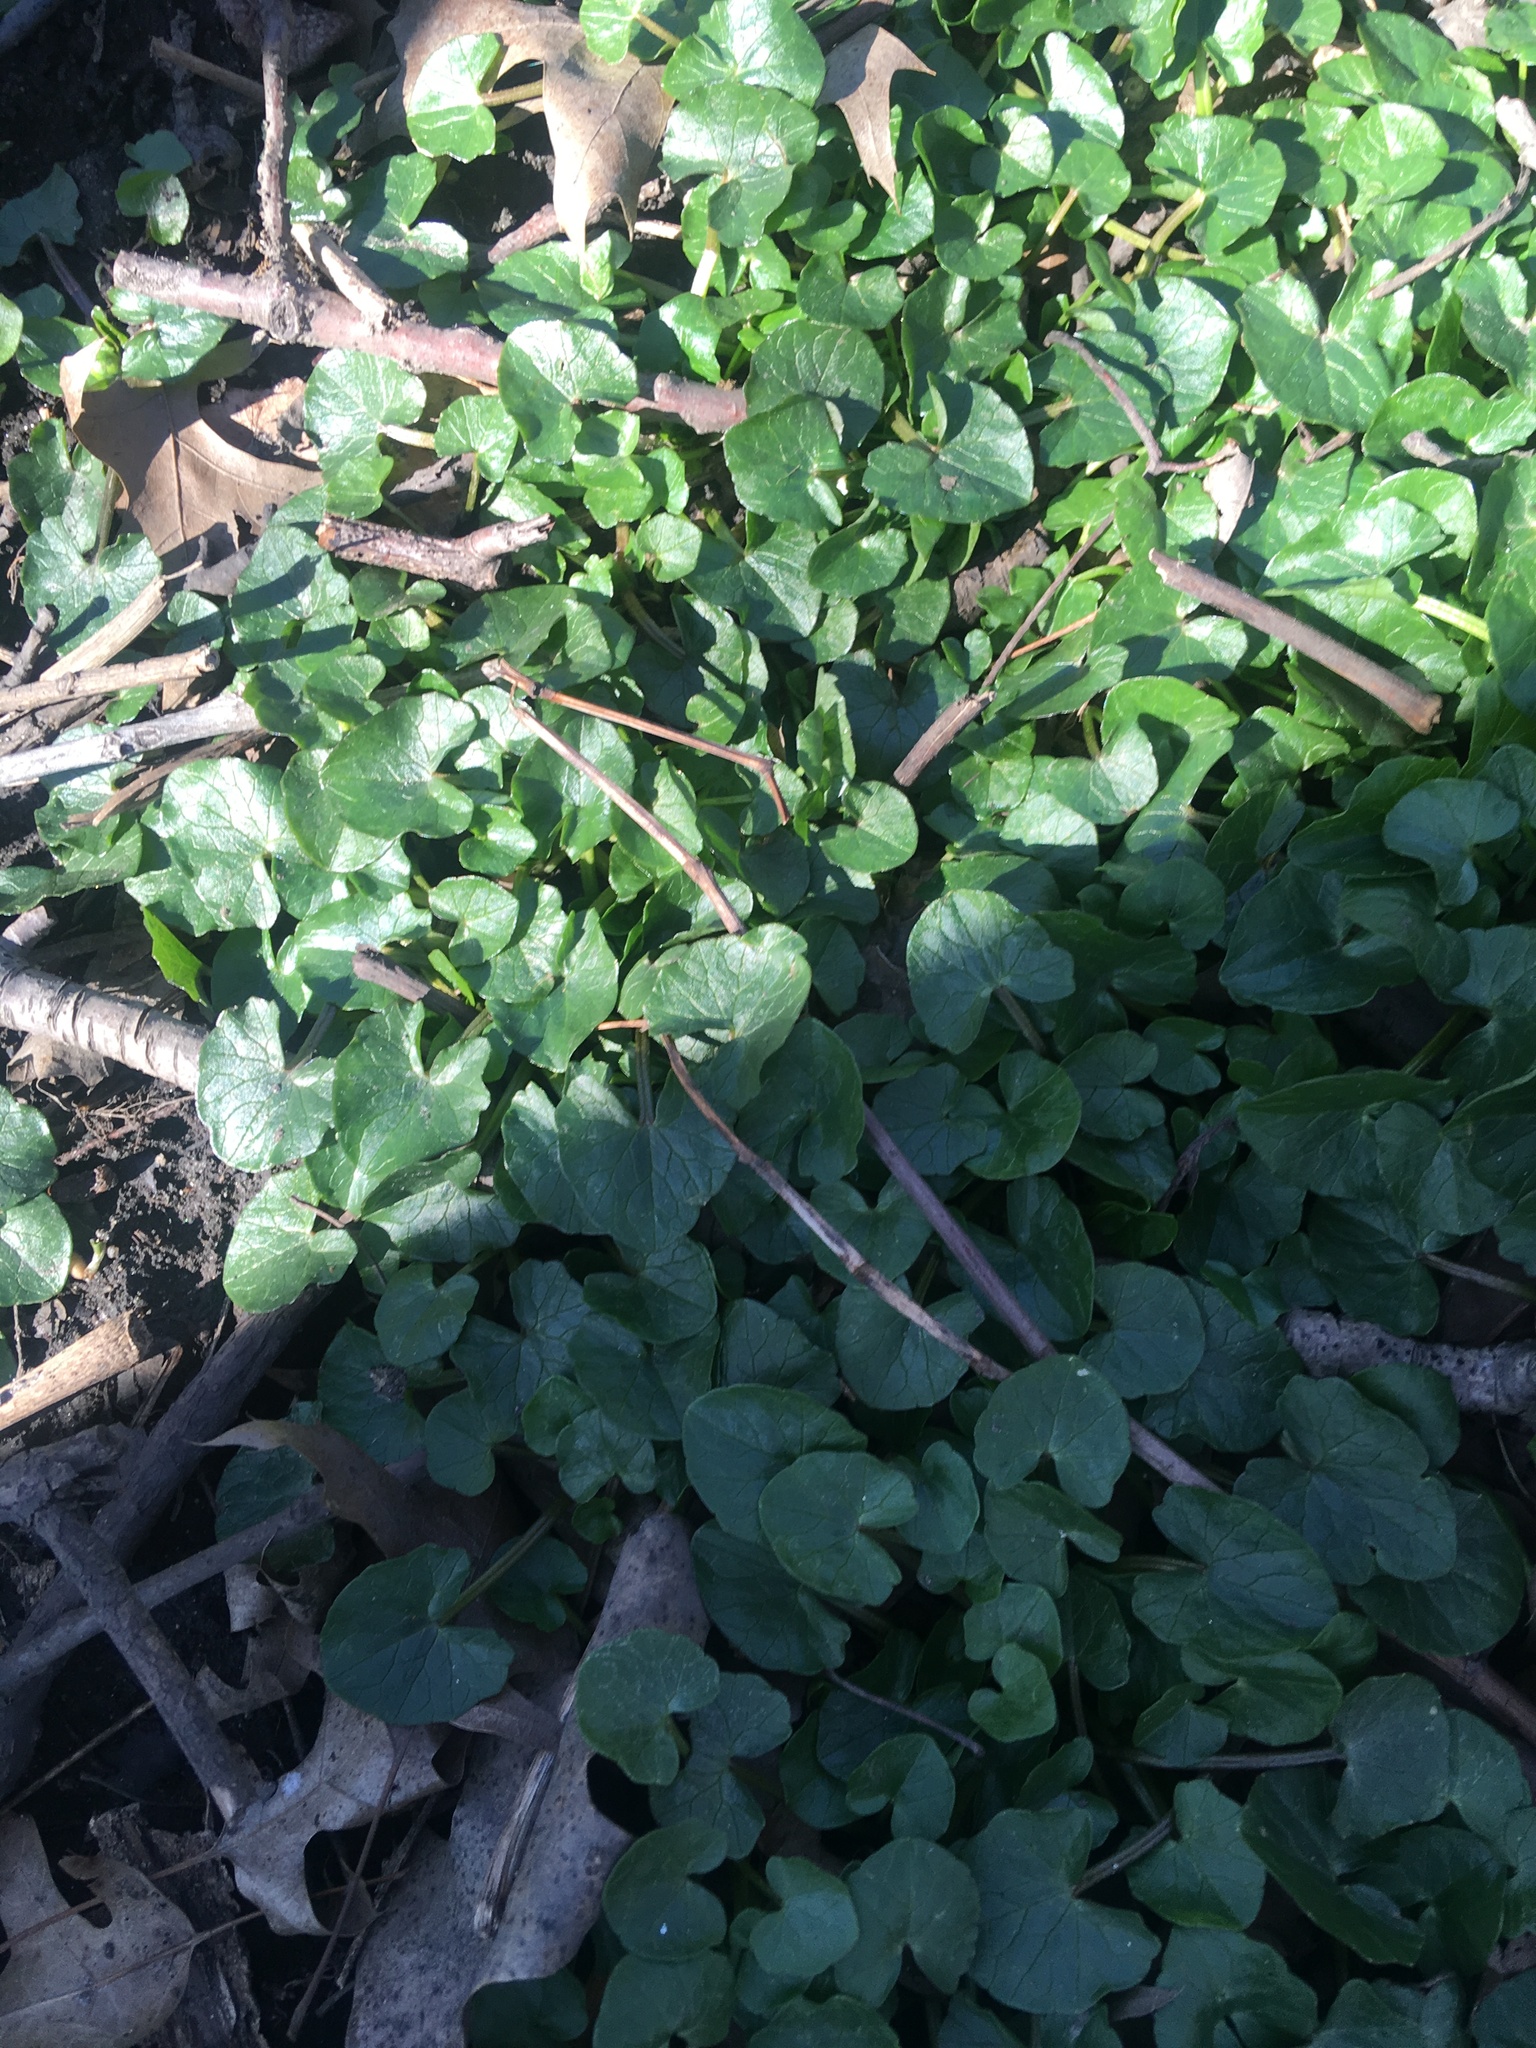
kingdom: Plantae
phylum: Tracheophyta
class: Magnoliopsida
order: Ranunculales
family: Ranunculaceae
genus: Ficaria
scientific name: Ficaria verna
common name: Lesser celandine
